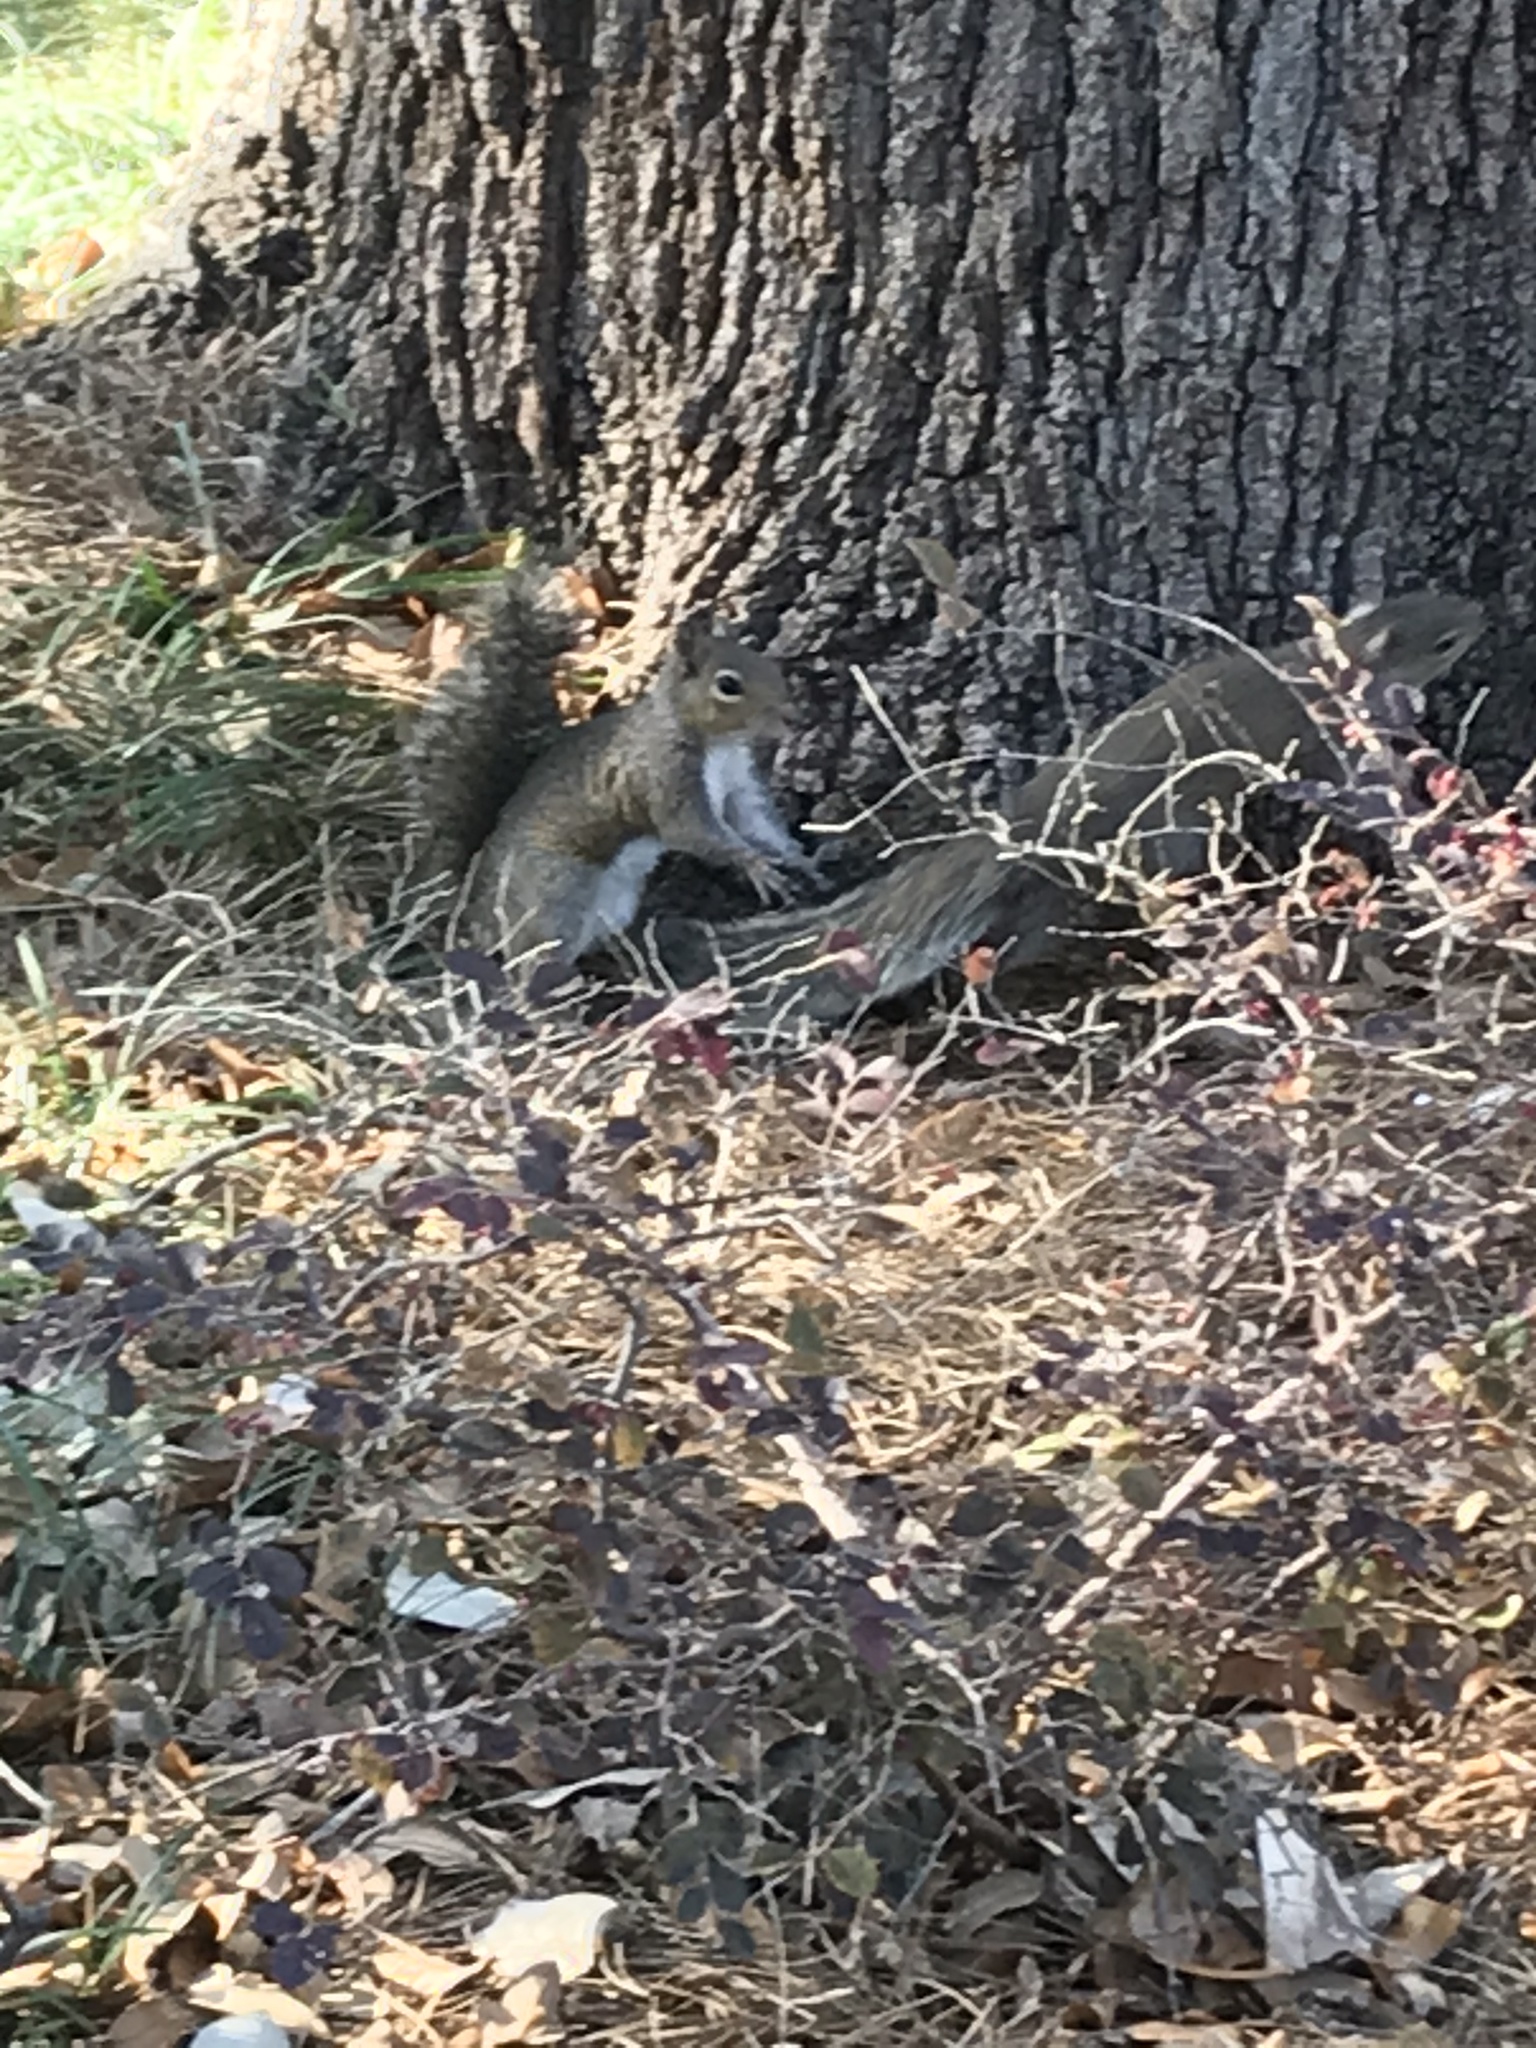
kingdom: Animalia
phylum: Chordata
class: Mammalia
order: Rodentia
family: Sciuridae
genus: Sciurus
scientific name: Sciurus carolinensis
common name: Eastern gray squirrel
